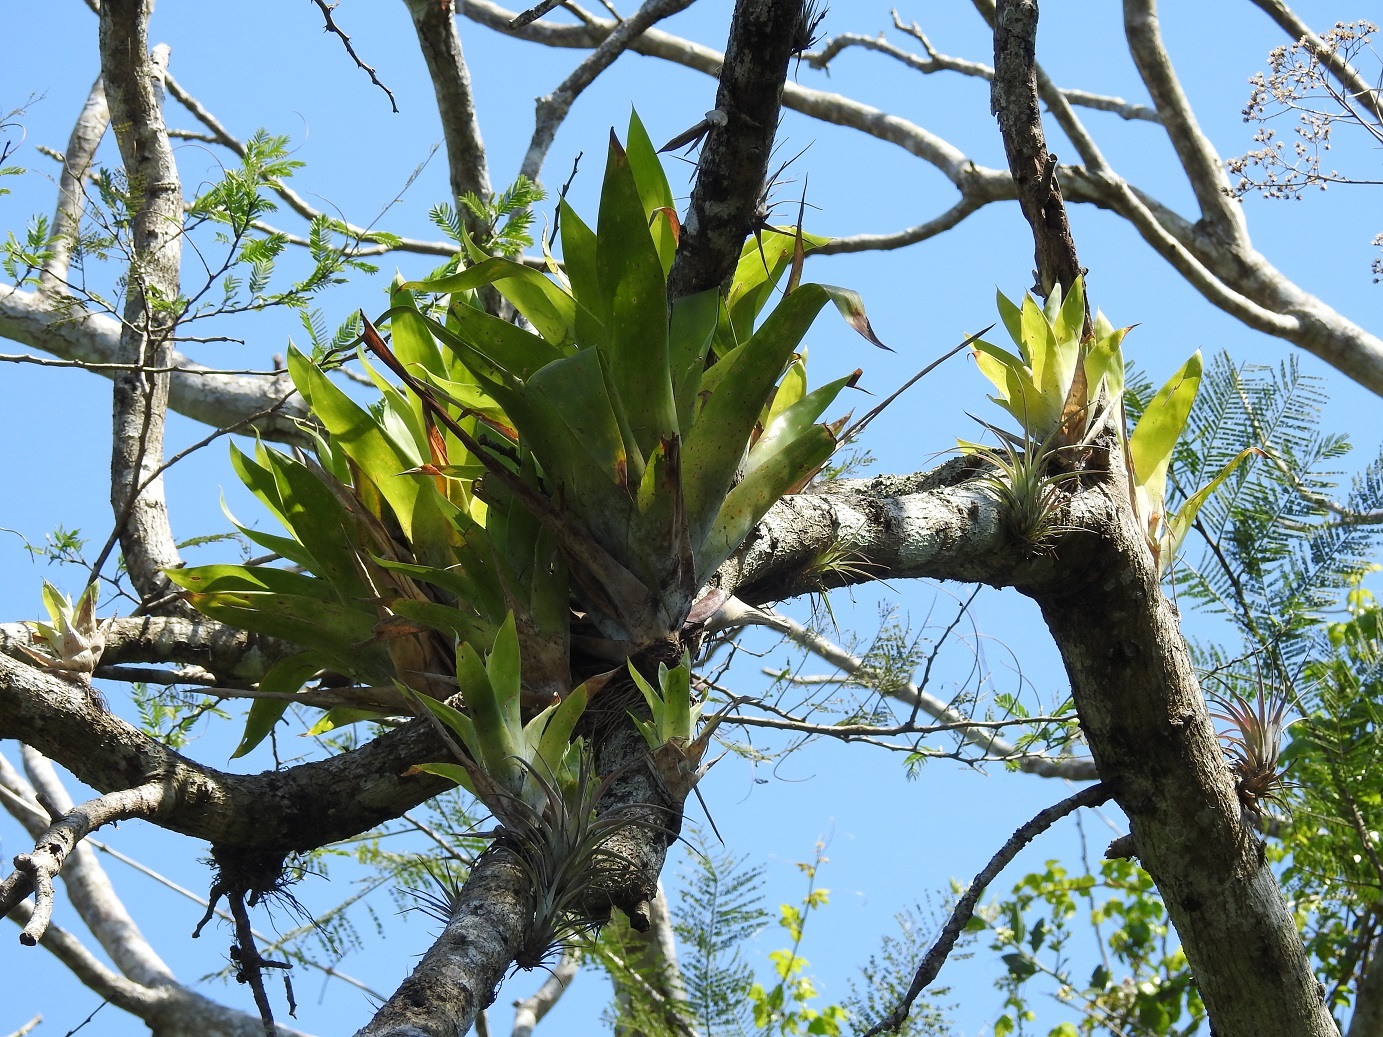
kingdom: Plantae
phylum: Tracheophyta
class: Liliopsida
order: Poales
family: Bromeliaceae
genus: Catopsis
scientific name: Catopsis occulta
